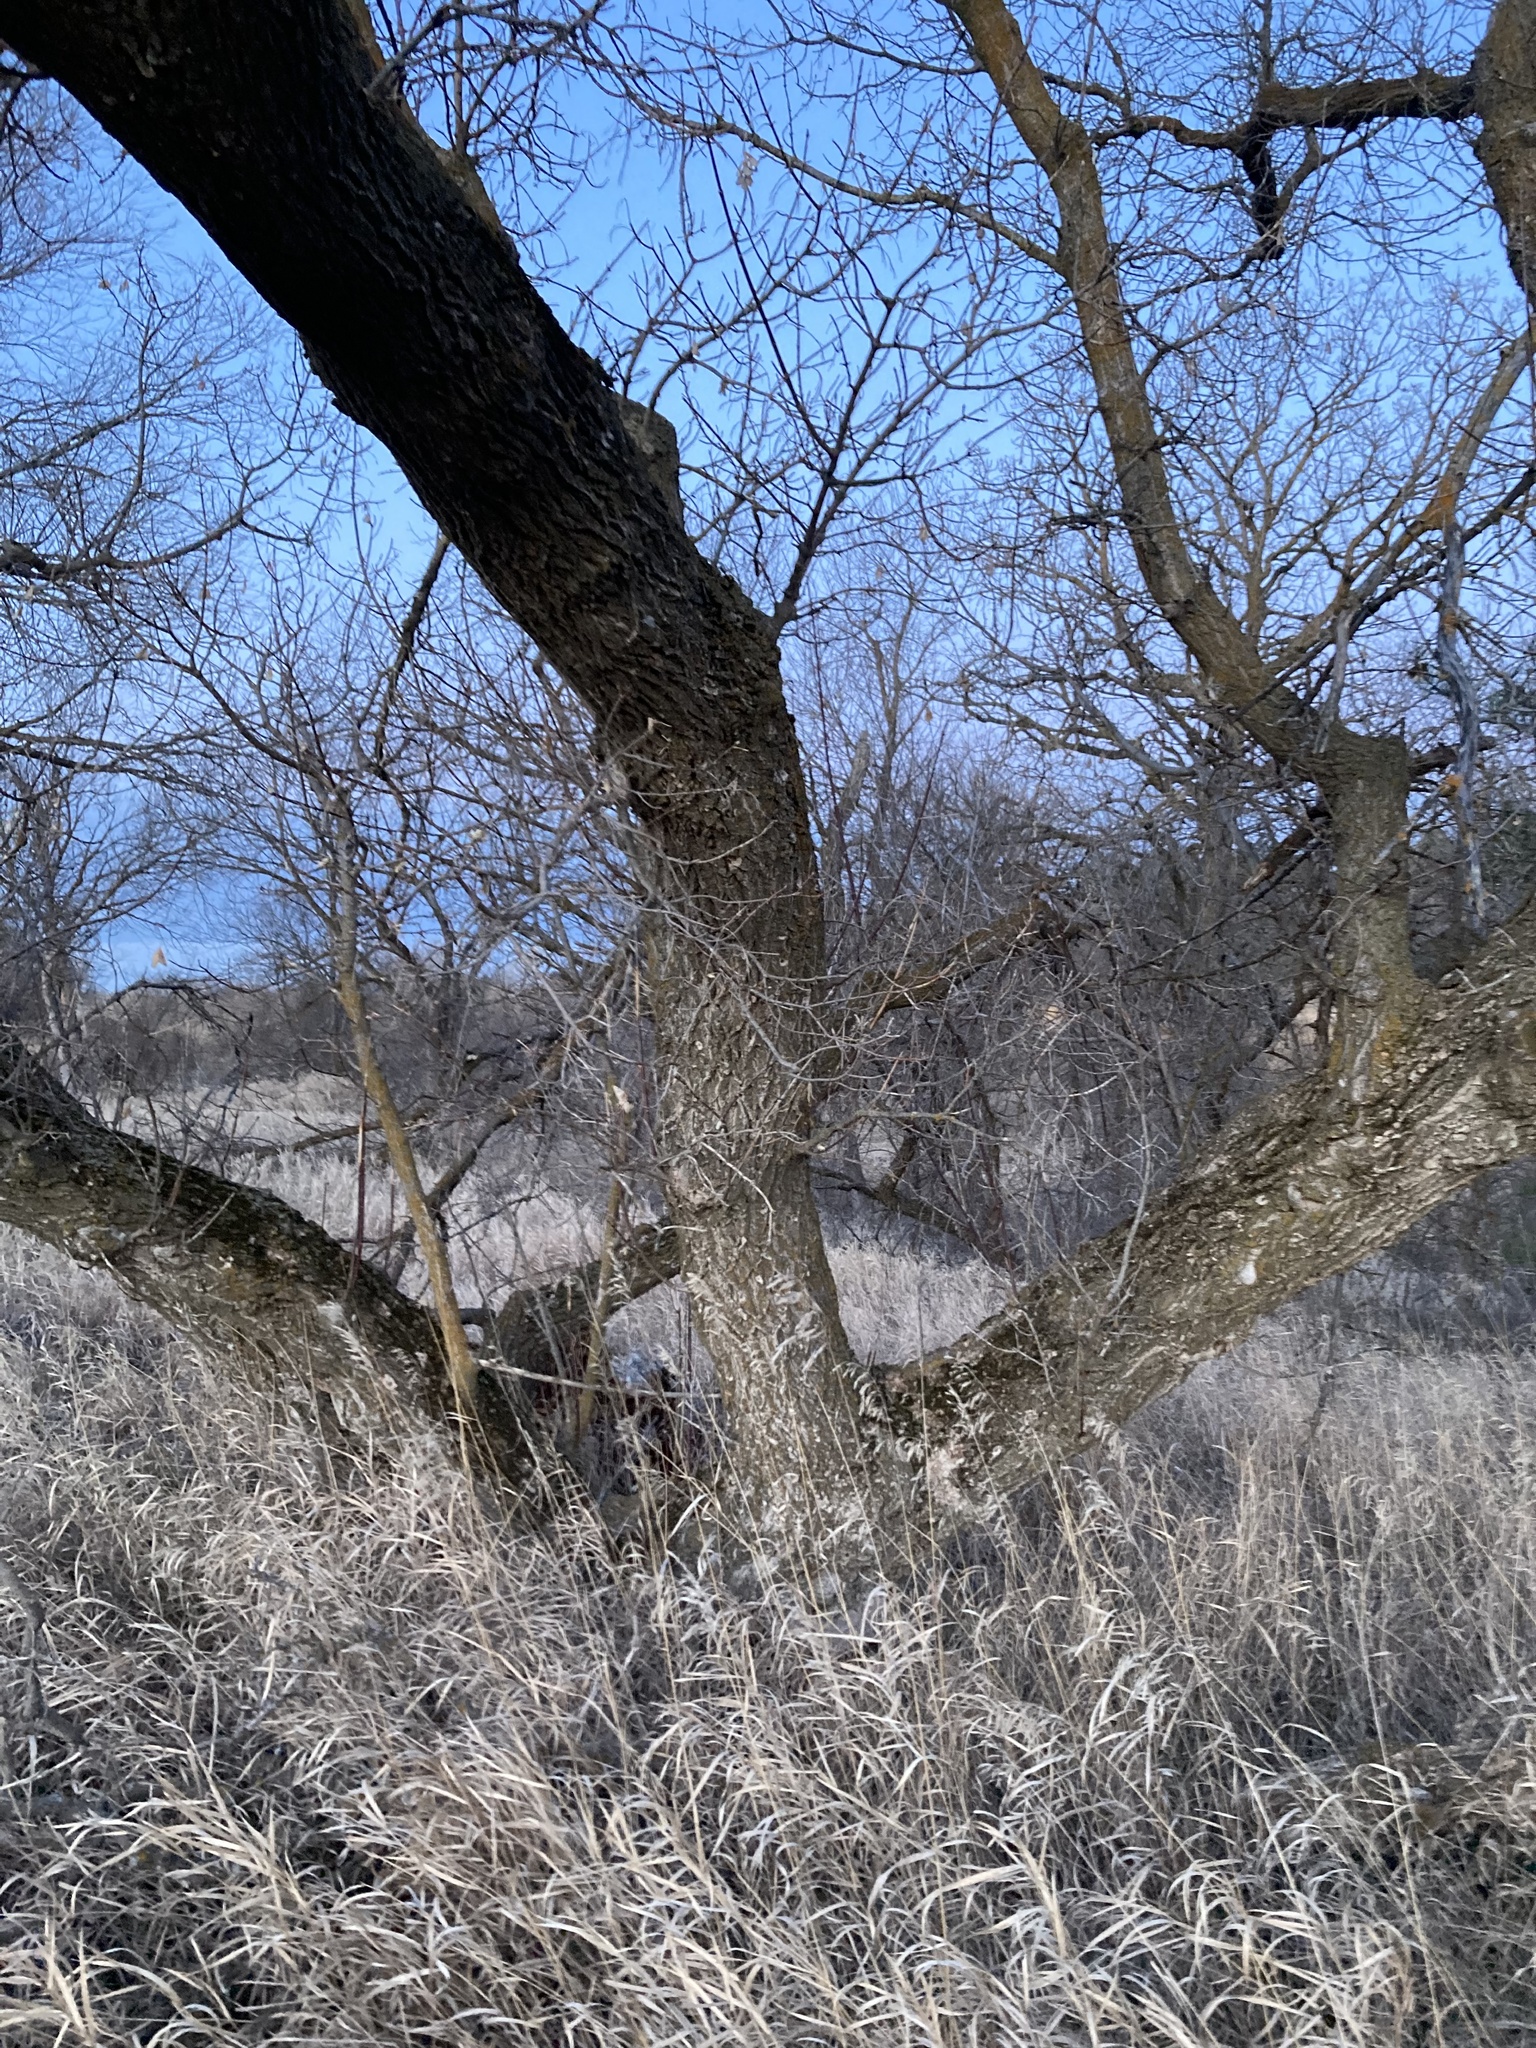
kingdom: Plantae
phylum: Tracheophyta
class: Magnoliopsida
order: Sapindales
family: Sapindaceae
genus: Acer
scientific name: Acer negundo
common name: Ashleaf maple
